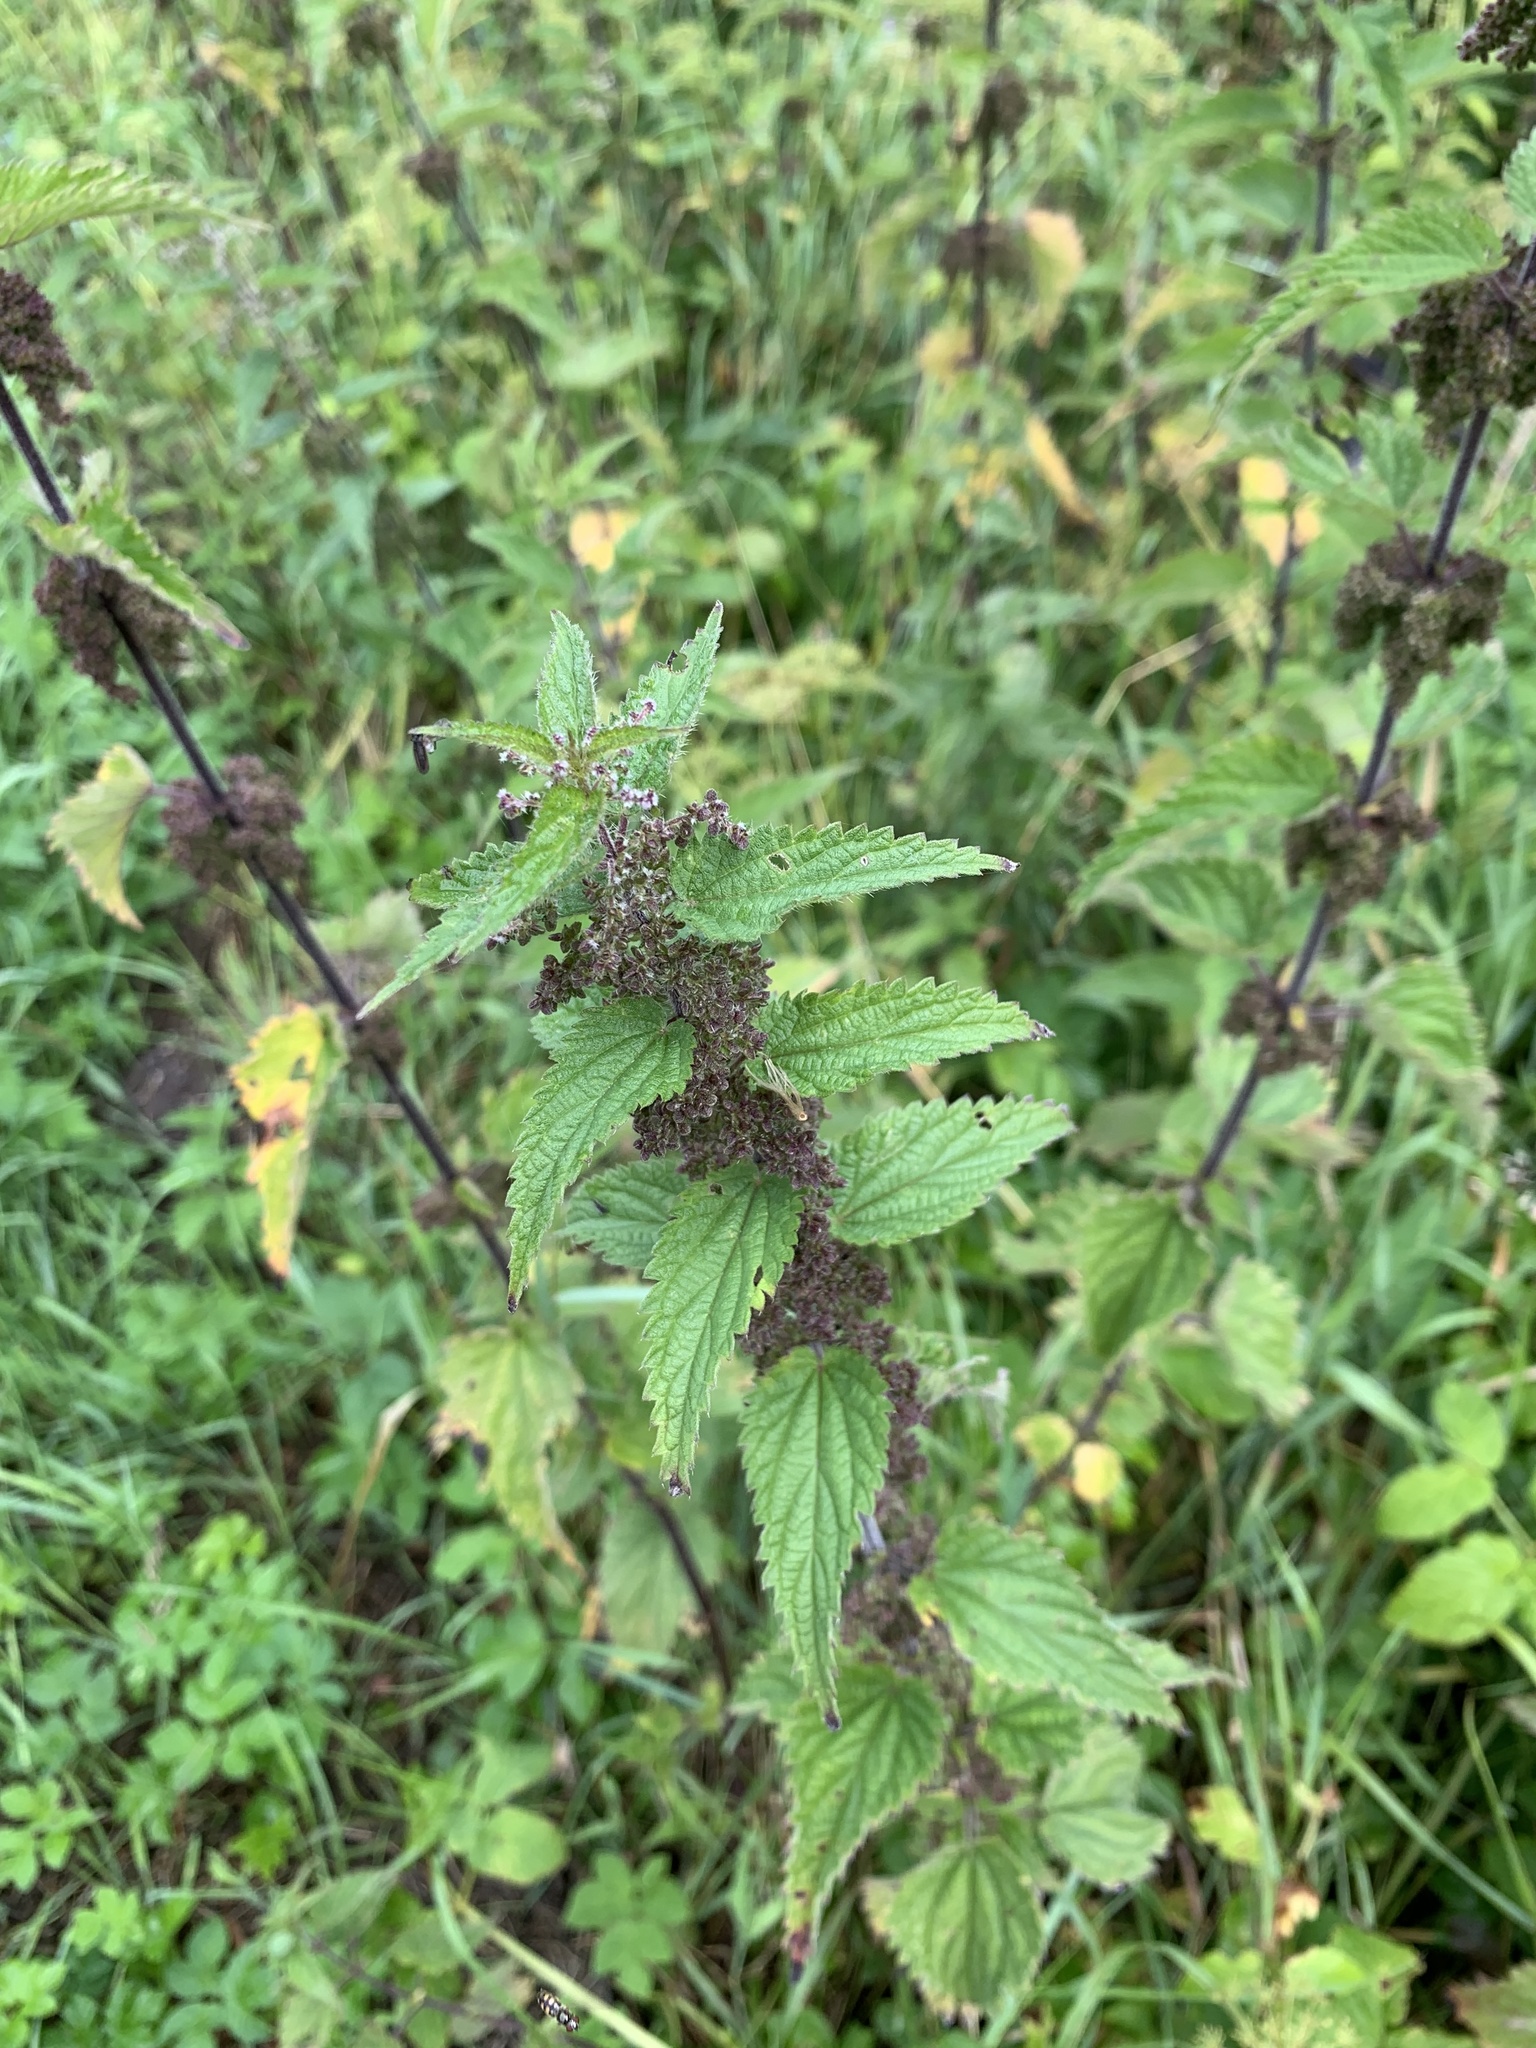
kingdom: Plantae
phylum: Tracheophyta
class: Magnoliopsida
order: Rosales
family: Urticaceae
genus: Urtica
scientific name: Urtica dioica
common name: Common nettle
